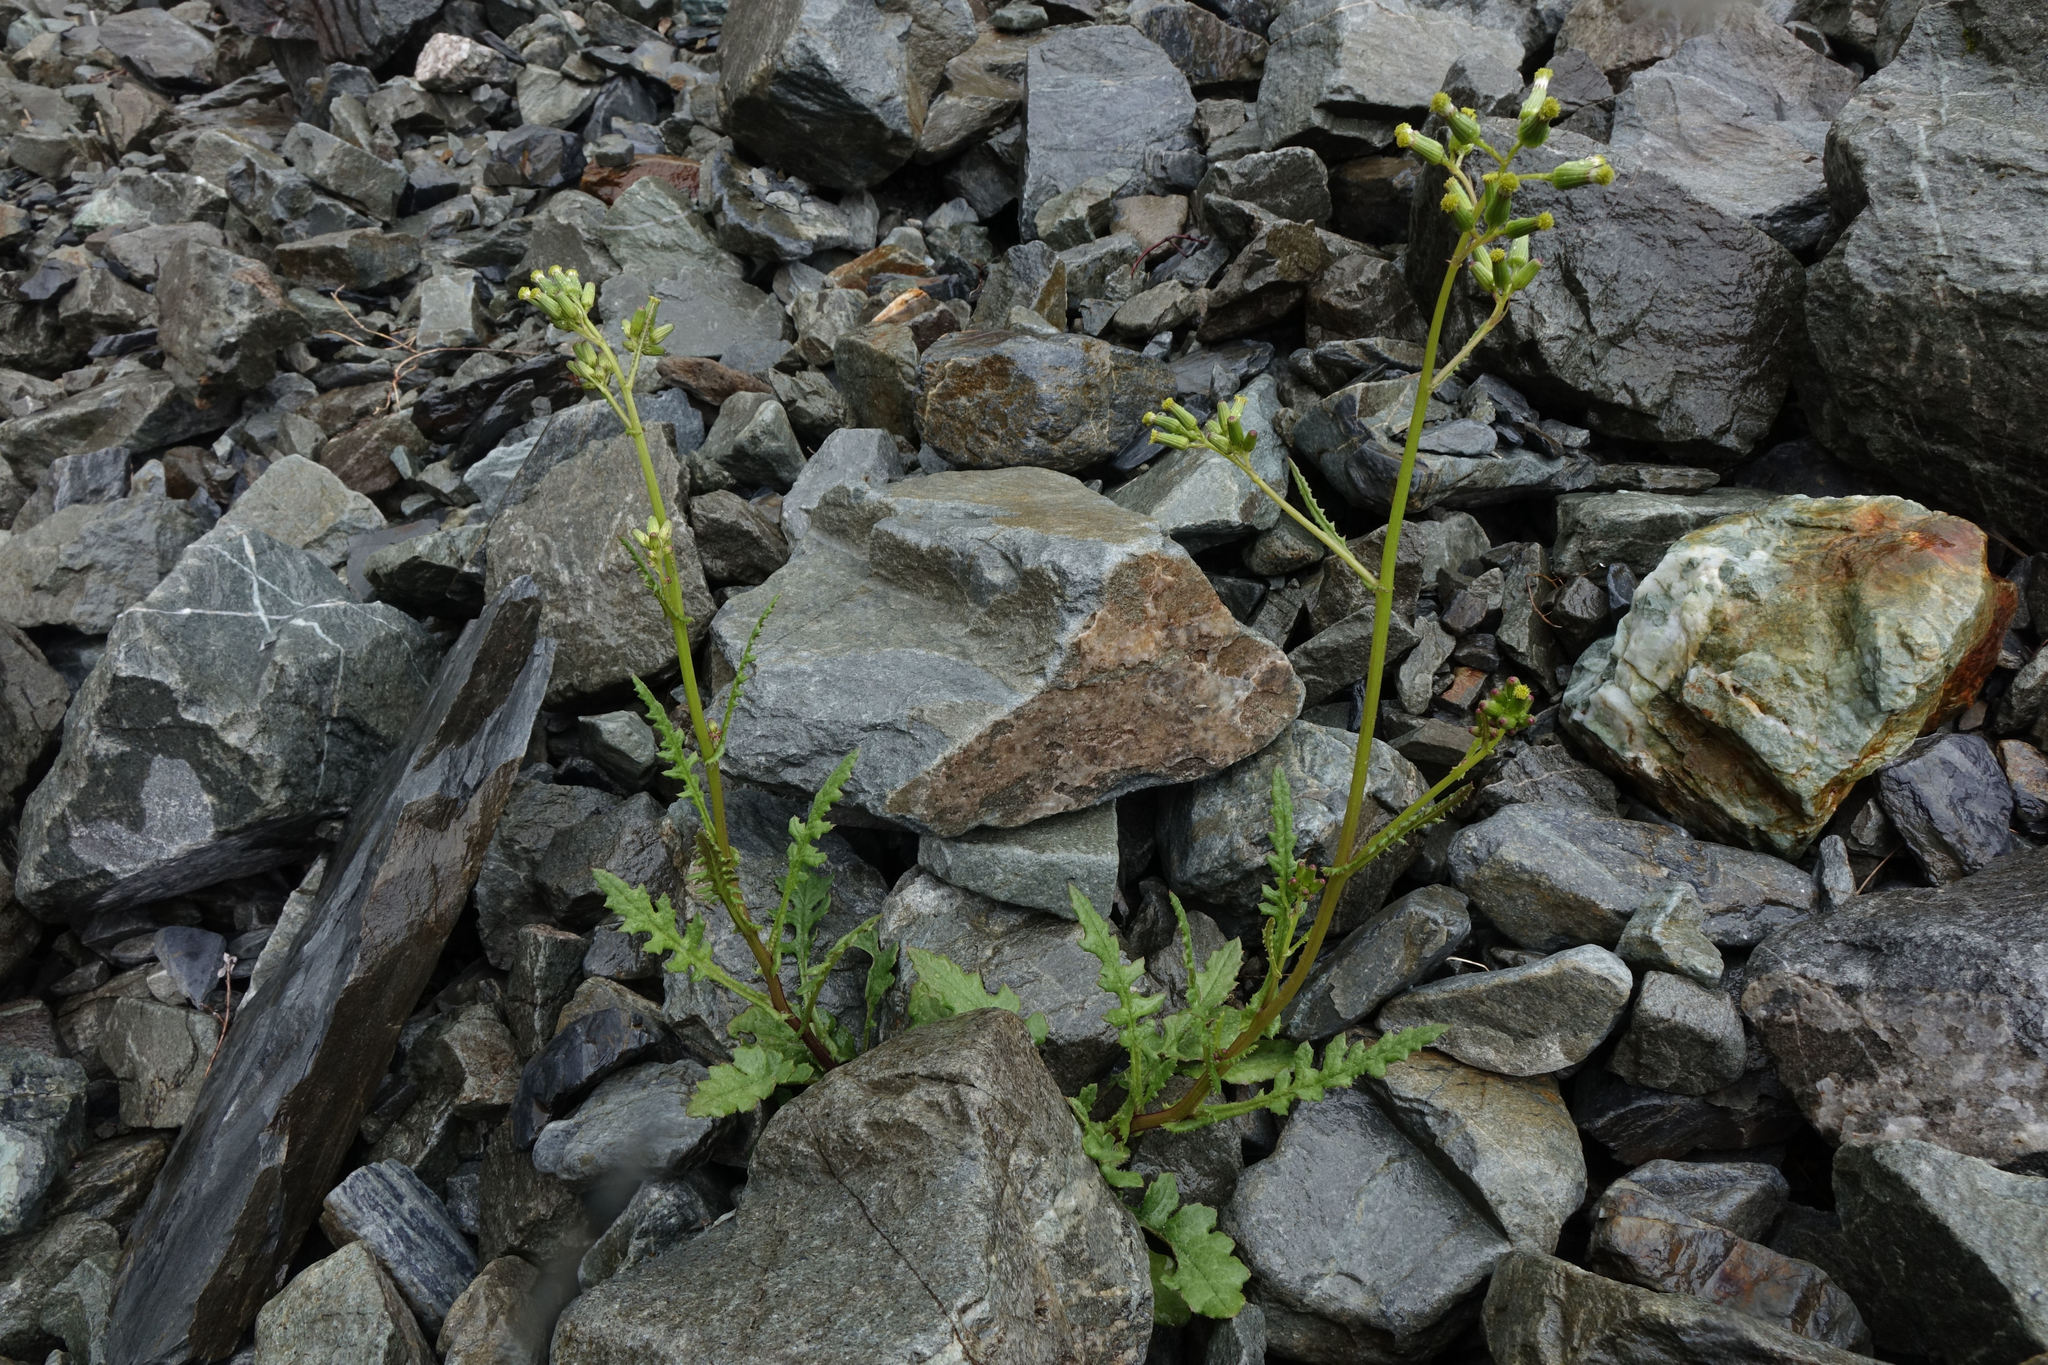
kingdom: Plantae
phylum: Tracheophyta
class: Magnoliopsida
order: Asterales
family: Asteraceae
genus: Senecio
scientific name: Senecio wairauensis
